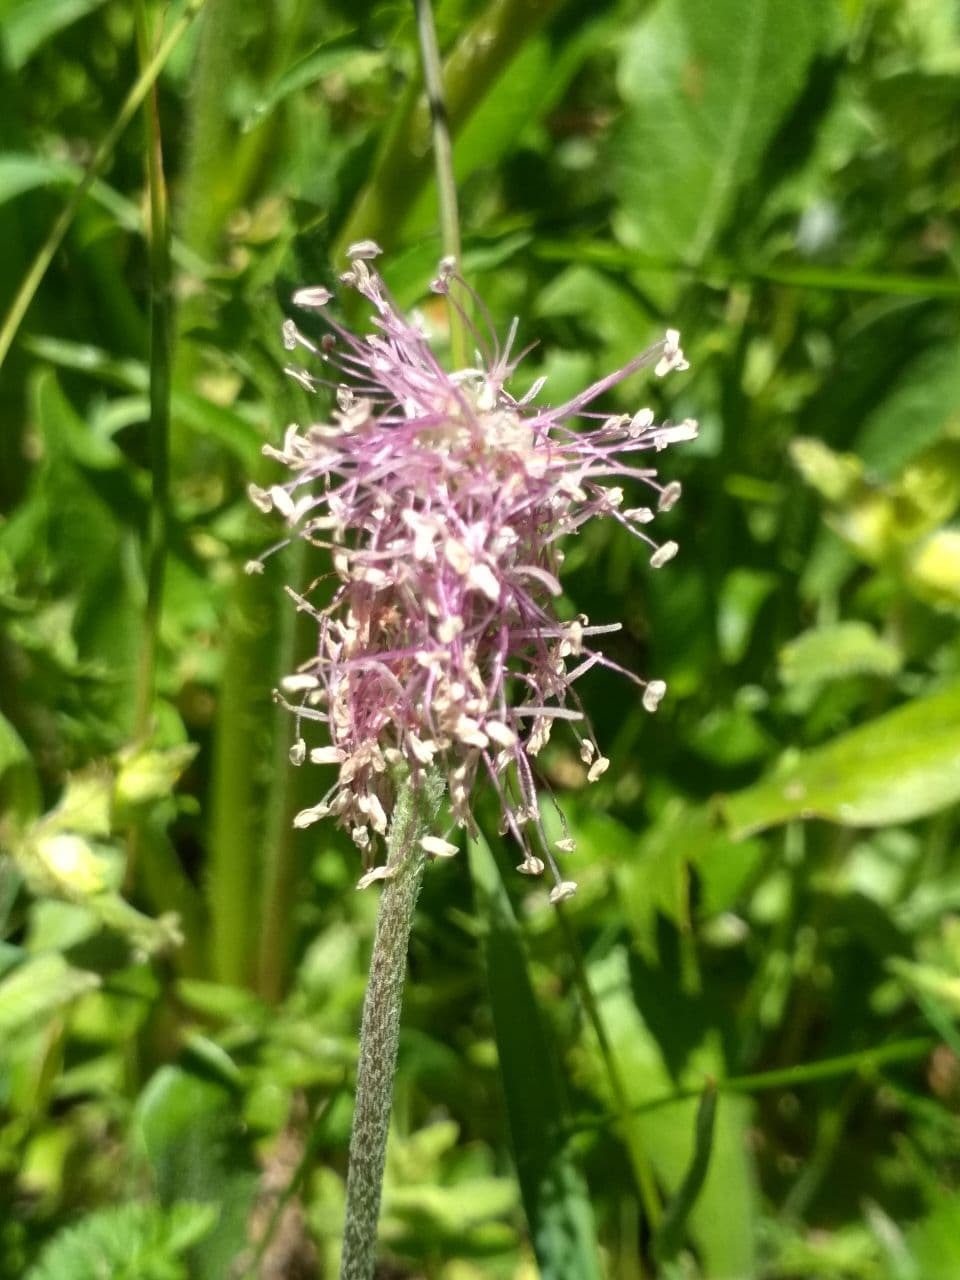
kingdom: Plantae
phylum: Tracheophyta
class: Magnoliopsida
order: Lamiales
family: Plantaginaceae
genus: Plantago
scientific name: Plantago media
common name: Hoary plantain
